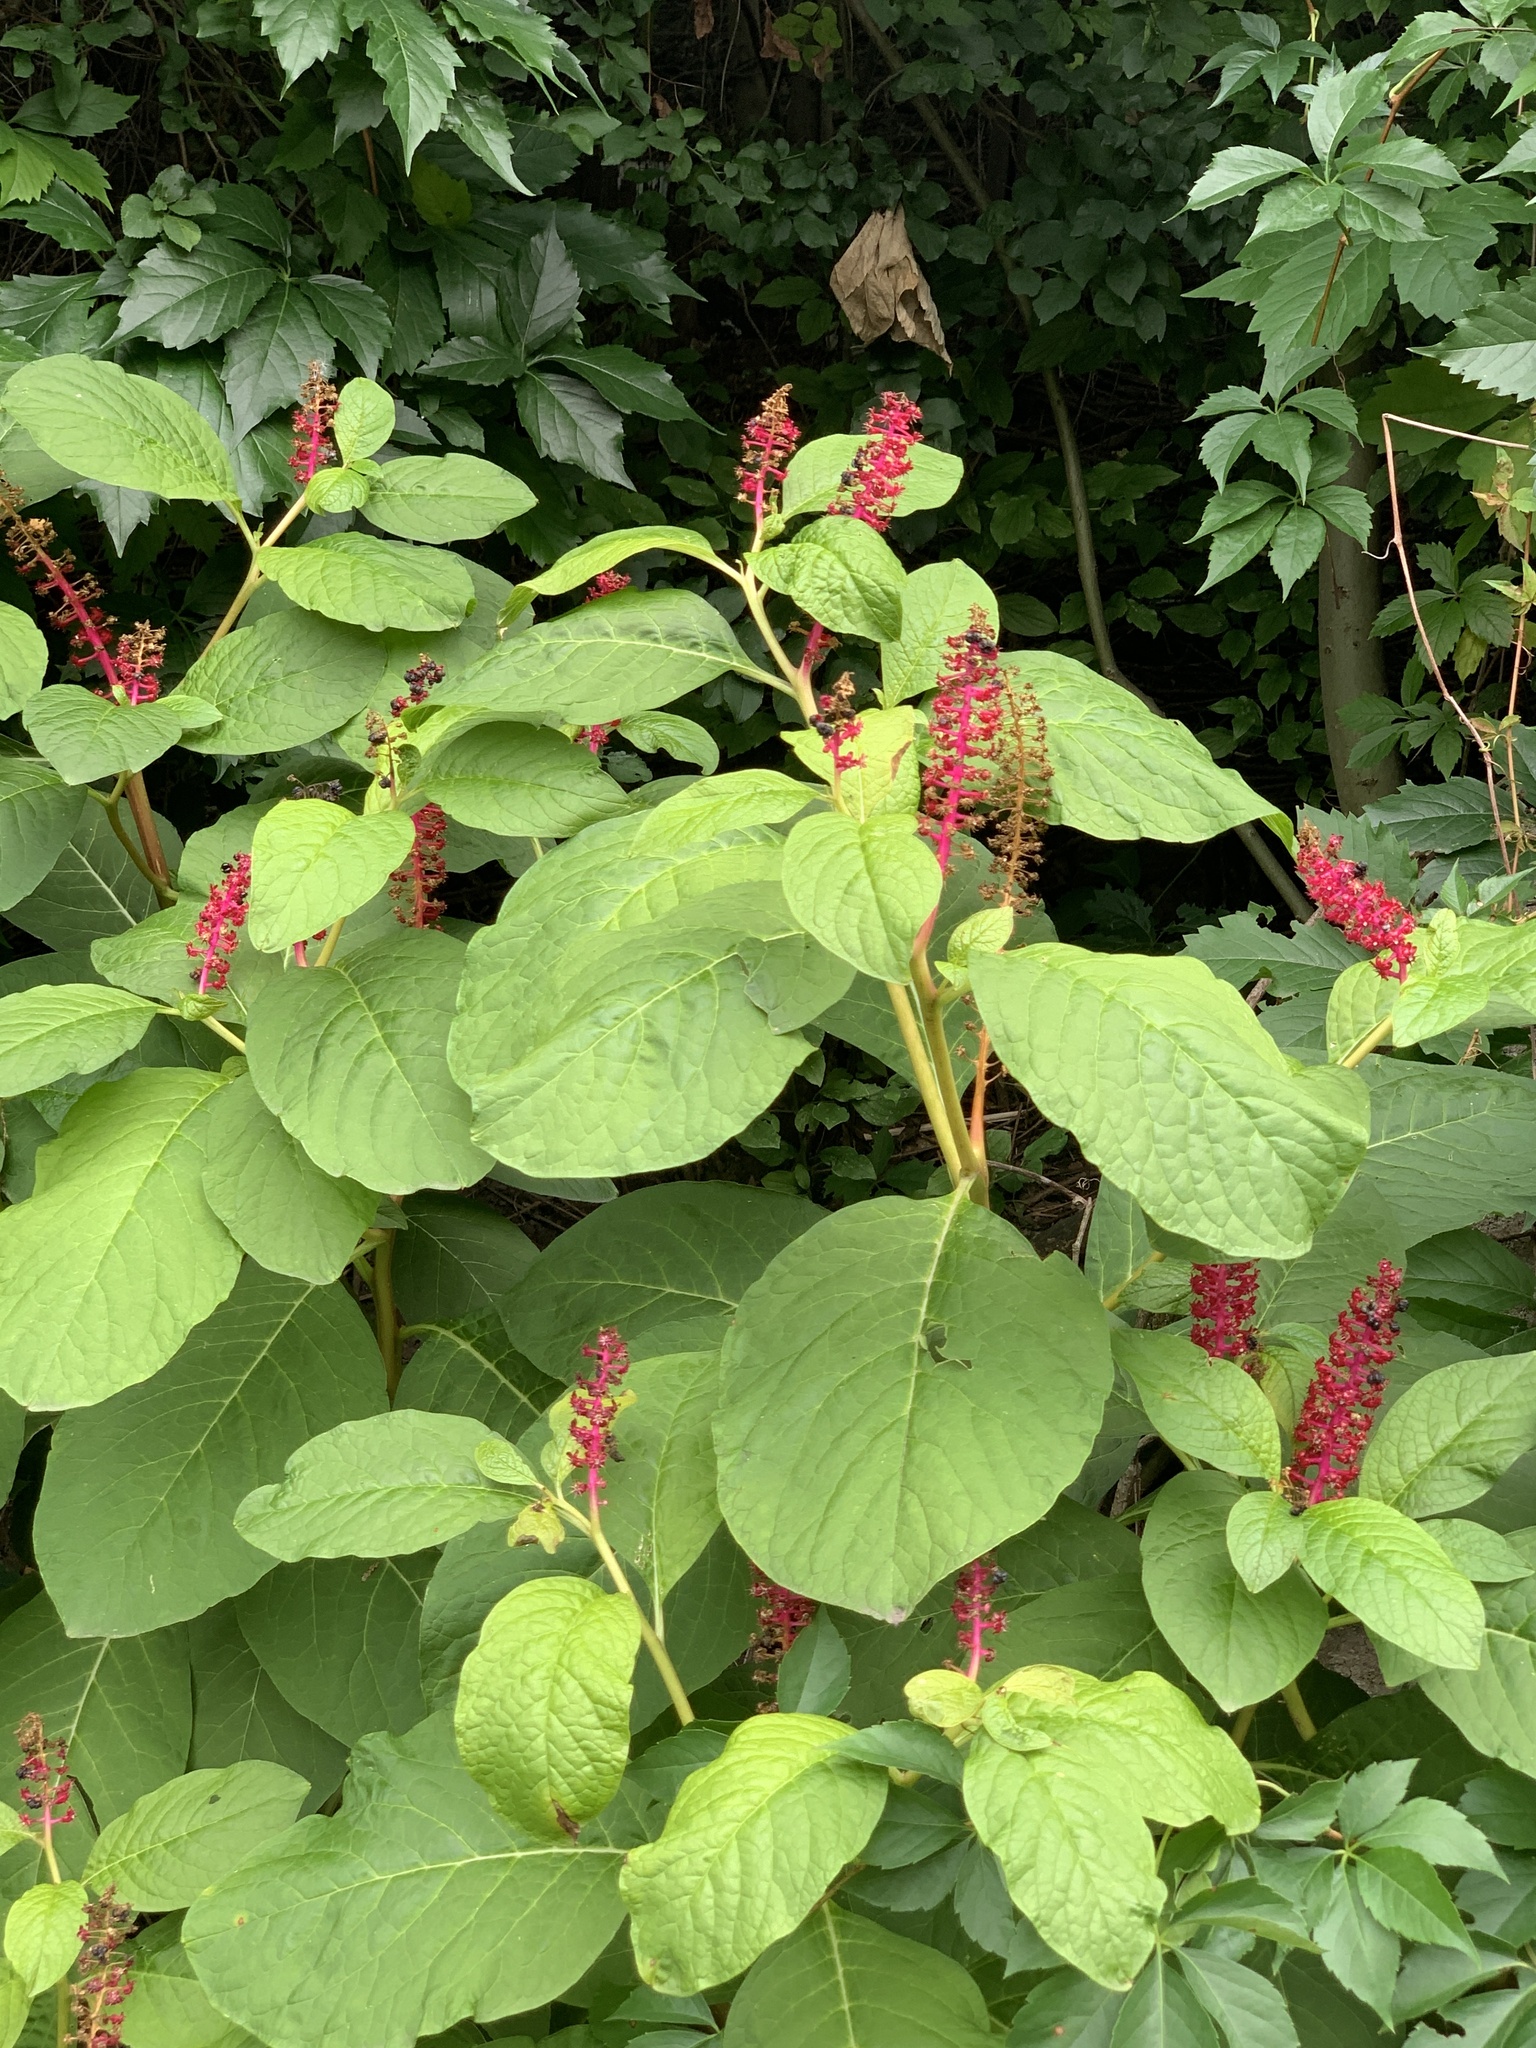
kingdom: Plantae
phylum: Tracheophyta
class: Magnoliopsida
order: Caryophyllales
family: Phytolaccaceae
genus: Phytolacca
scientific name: Phytolacca acinosa
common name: Indian pokeweed
